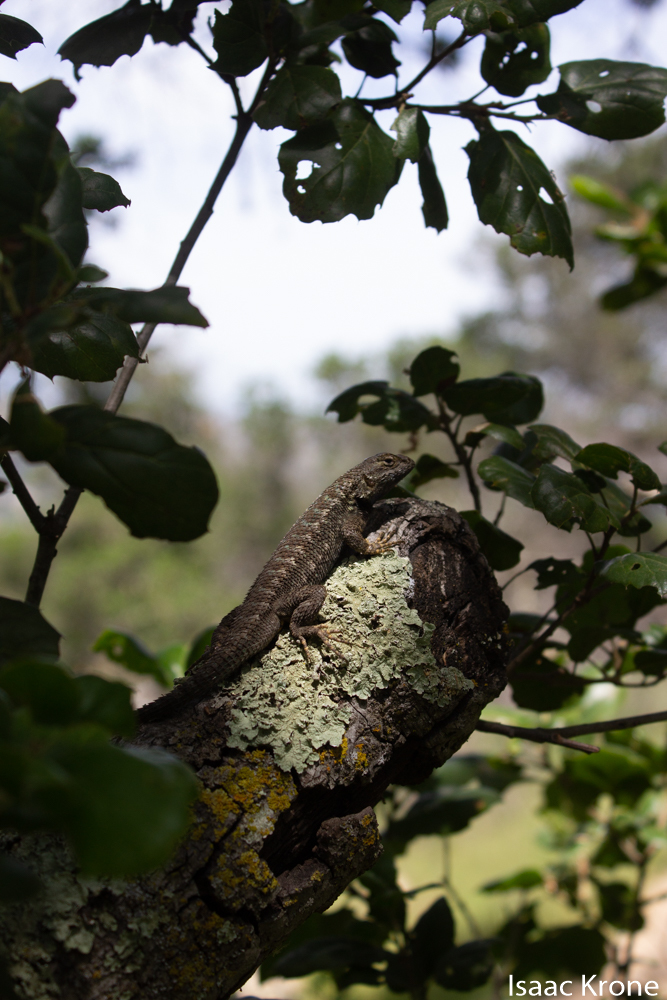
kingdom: Animalia
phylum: Chordata
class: Squamata
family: Phrynosomatidae
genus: Sceloporus
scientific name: Sceloporus occidentalis
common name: Western fence lizard
